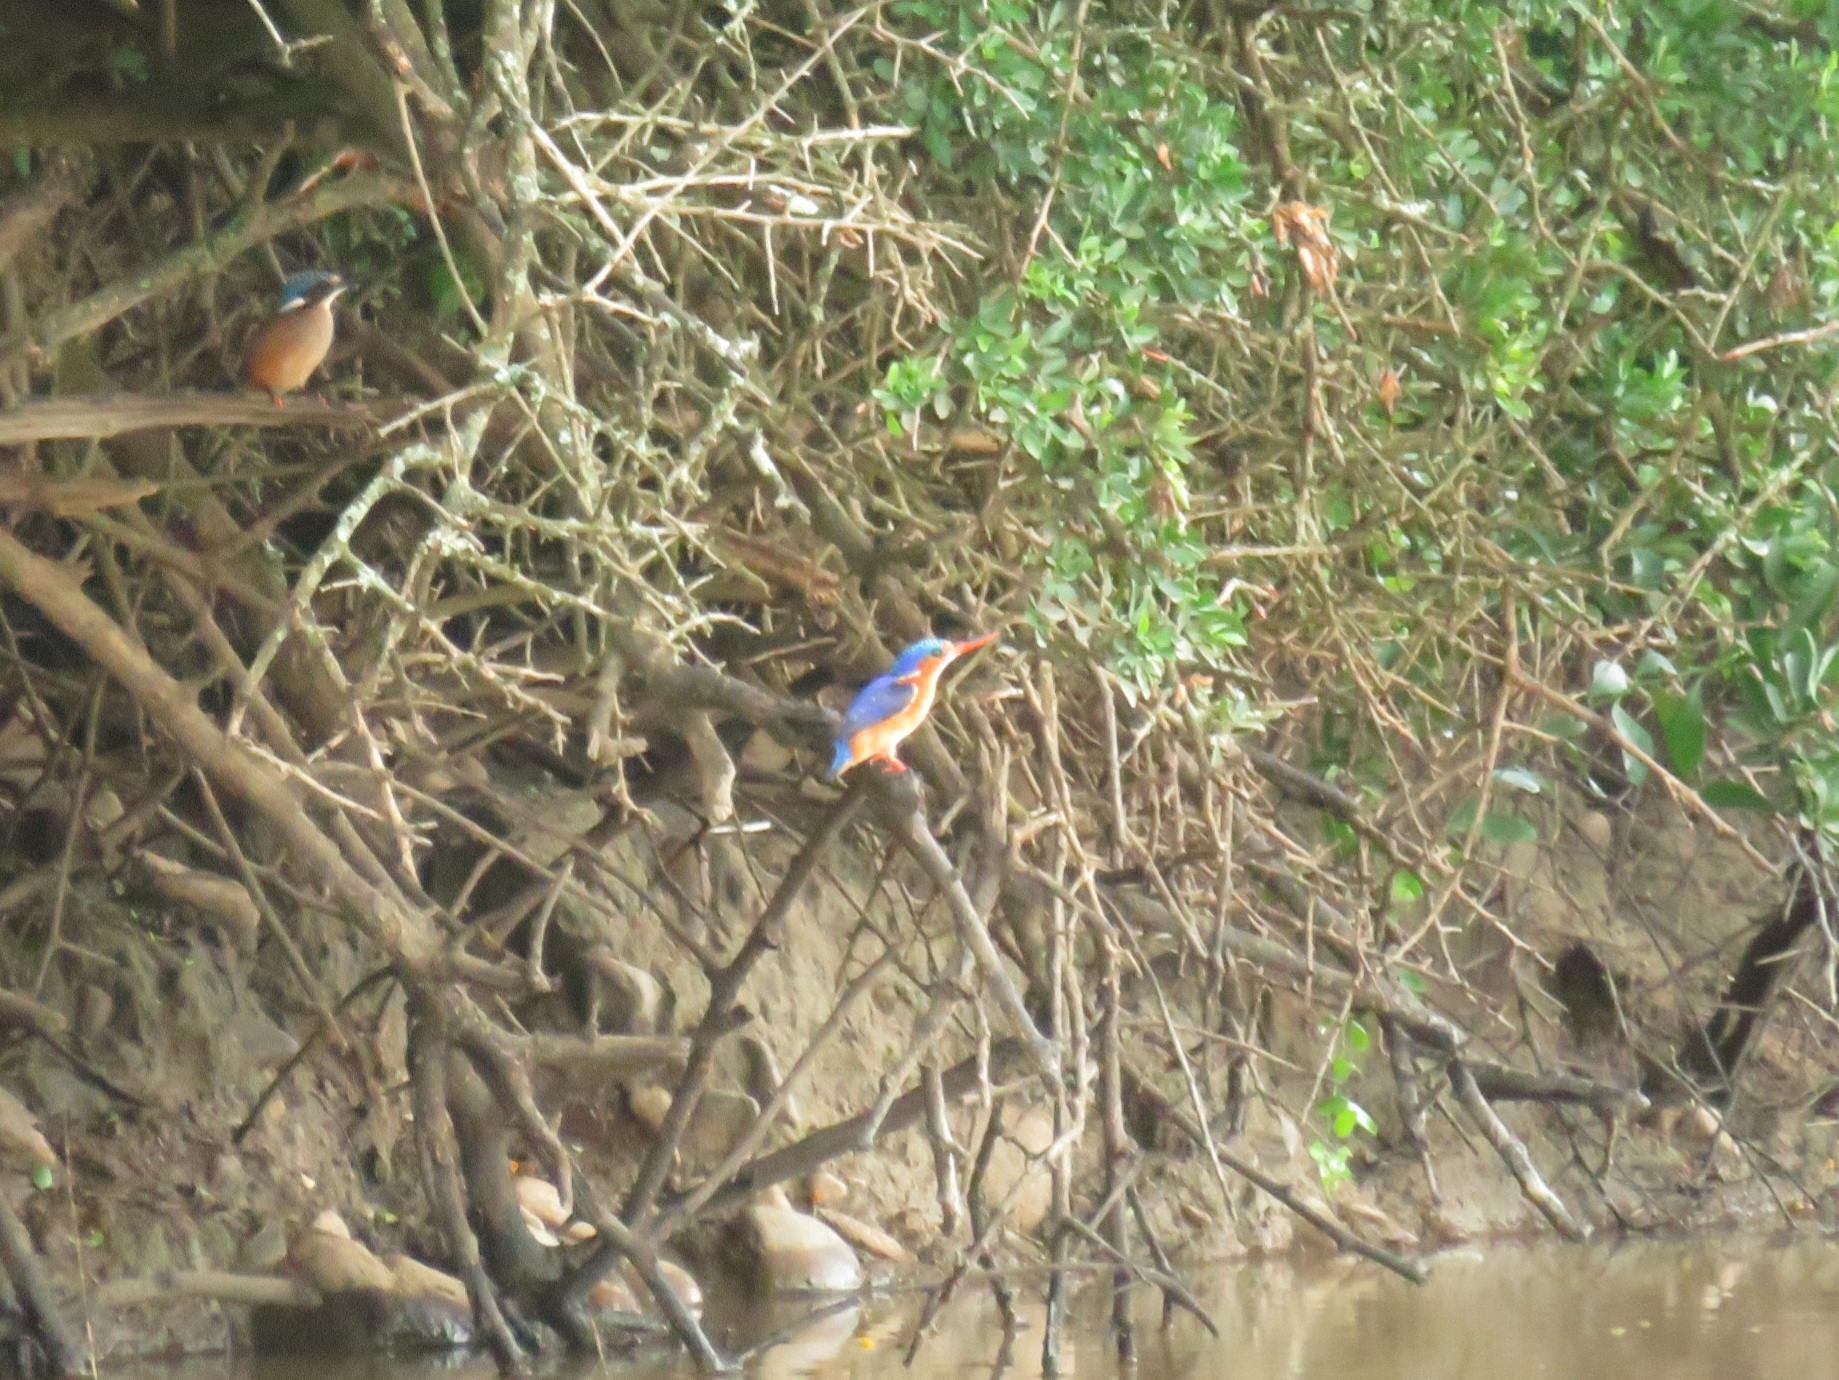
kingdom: Animalia
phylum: Chordata
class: Aves
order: Coraciiformes
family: Alcedinidae
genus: Corythornis
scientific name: Corythornis cristatus
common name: Malachite kingfisher
